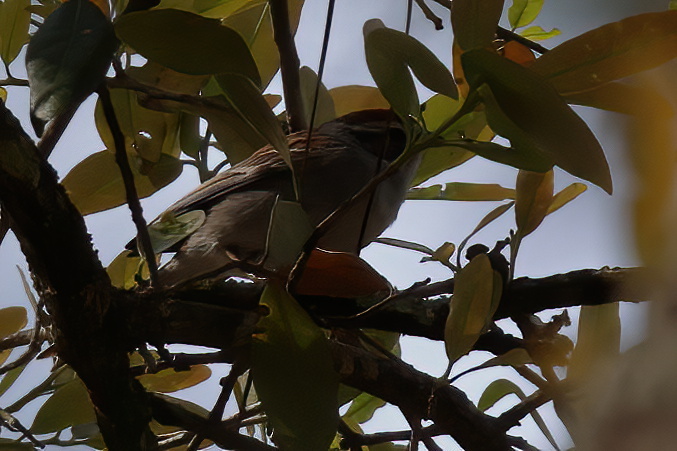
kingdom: Animalia
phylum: Chordata
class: Aves
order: Passeriformes
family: Passerellidae
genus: Spizella
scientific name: Spizella passerina
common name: Chipping sparrow
